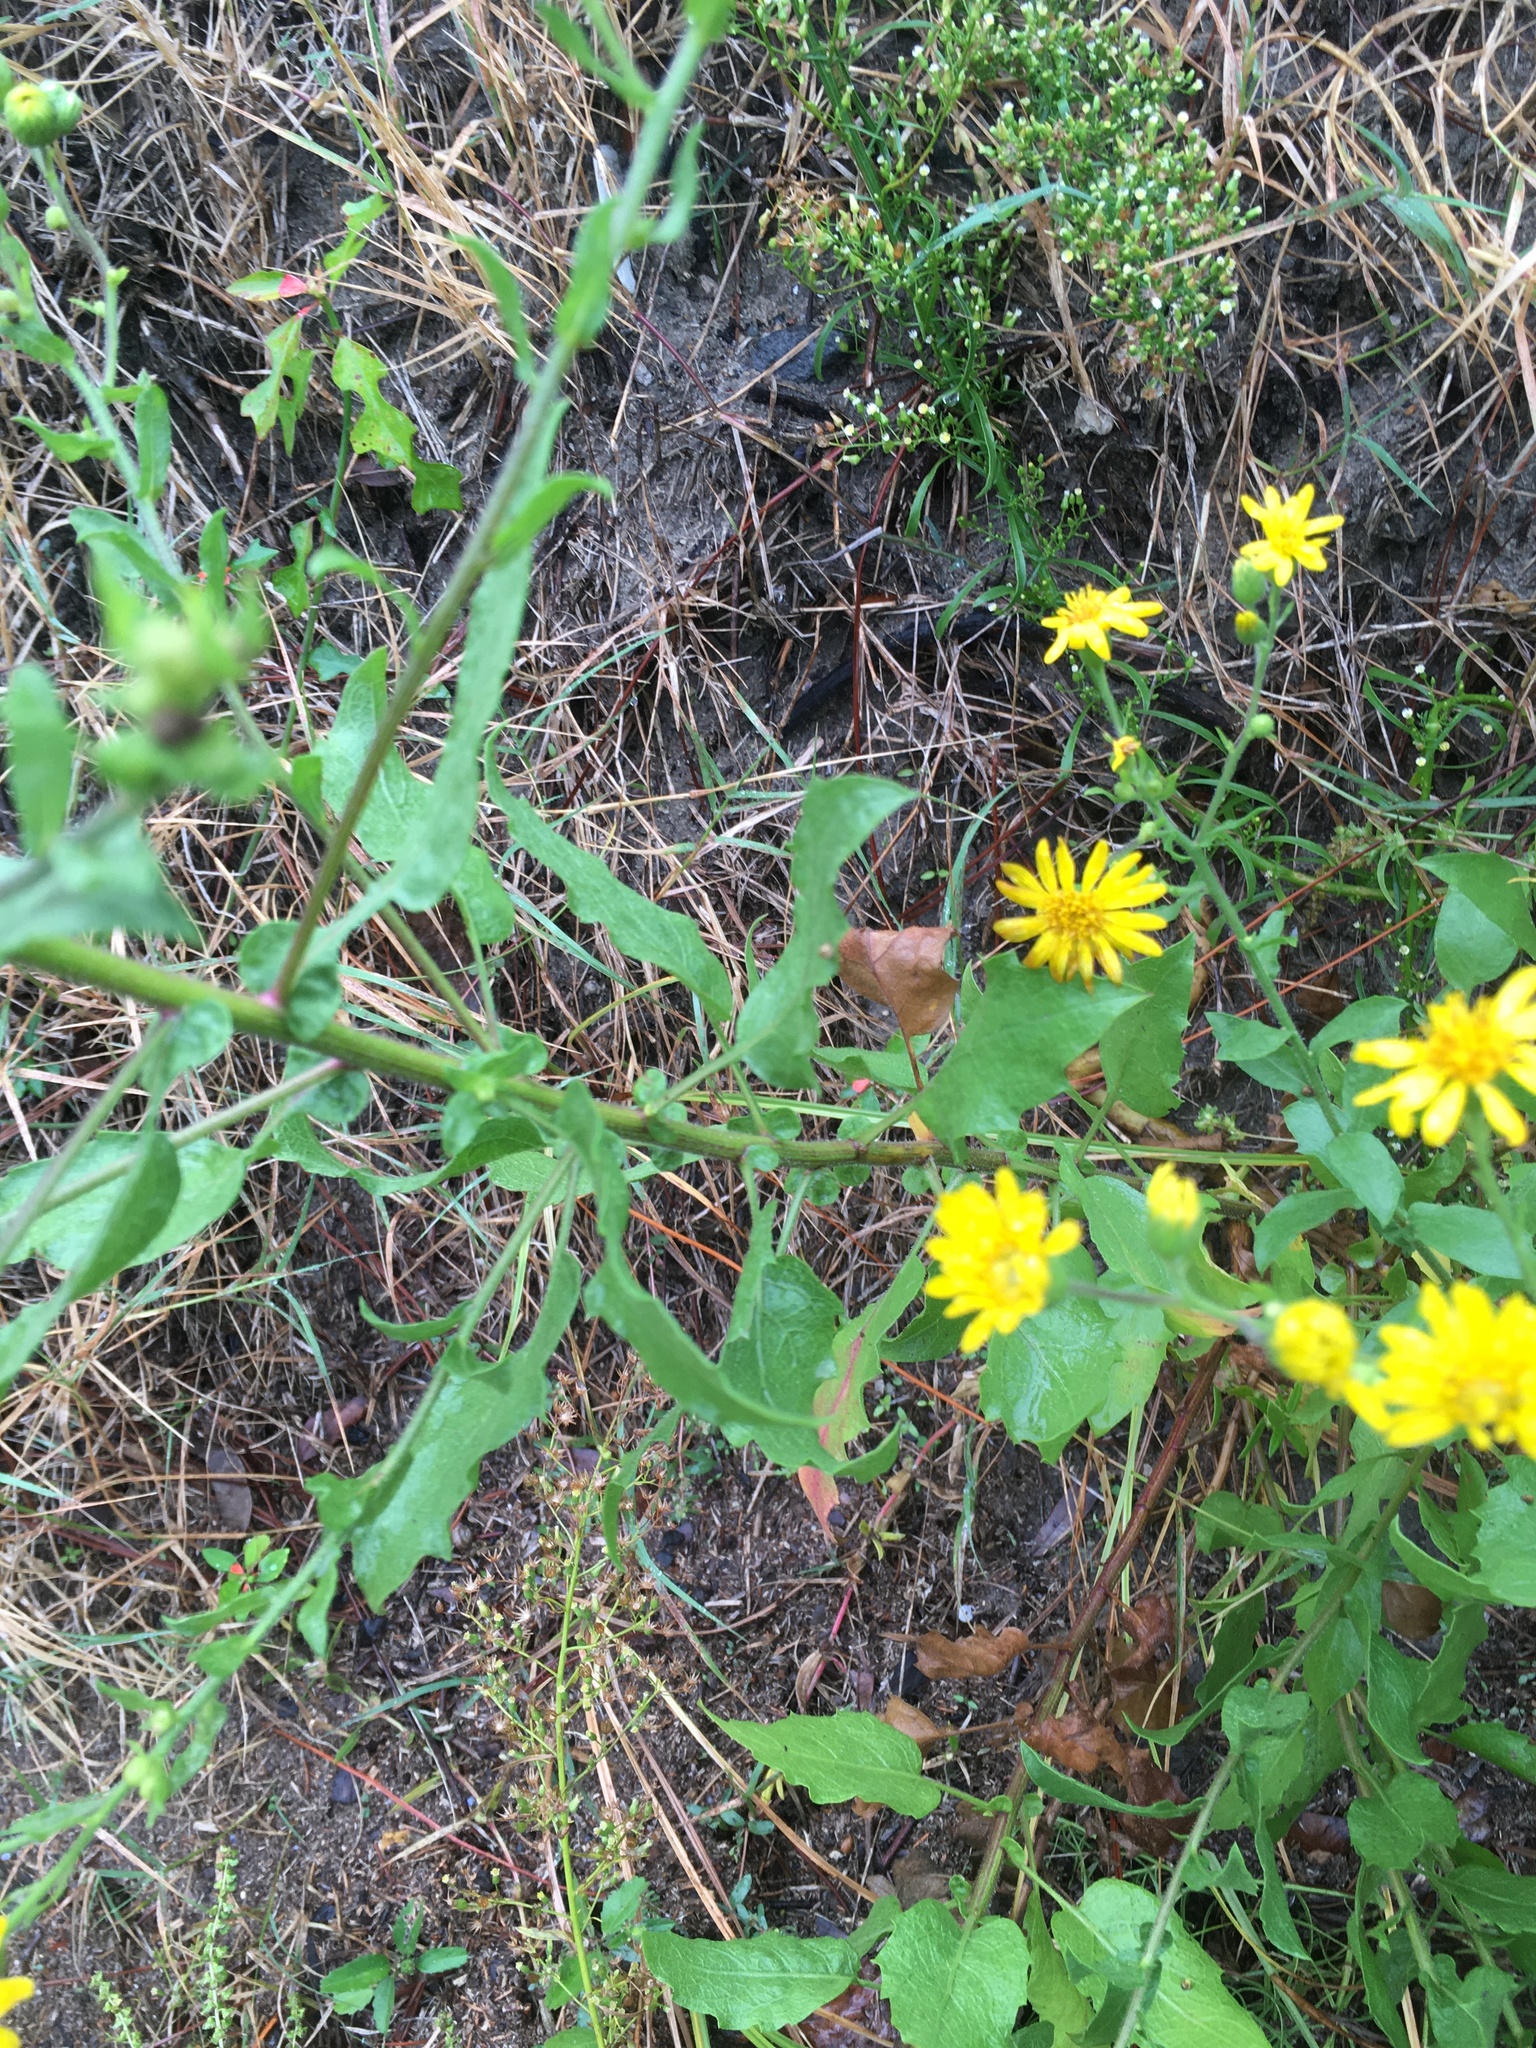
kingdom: Plantae
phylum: Tracheophyta
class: Magnoliopsida
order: Asterales
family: Asteraceae
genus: Heterotheca
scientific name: Heterotheca subaxillaris
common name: Camphorweed
